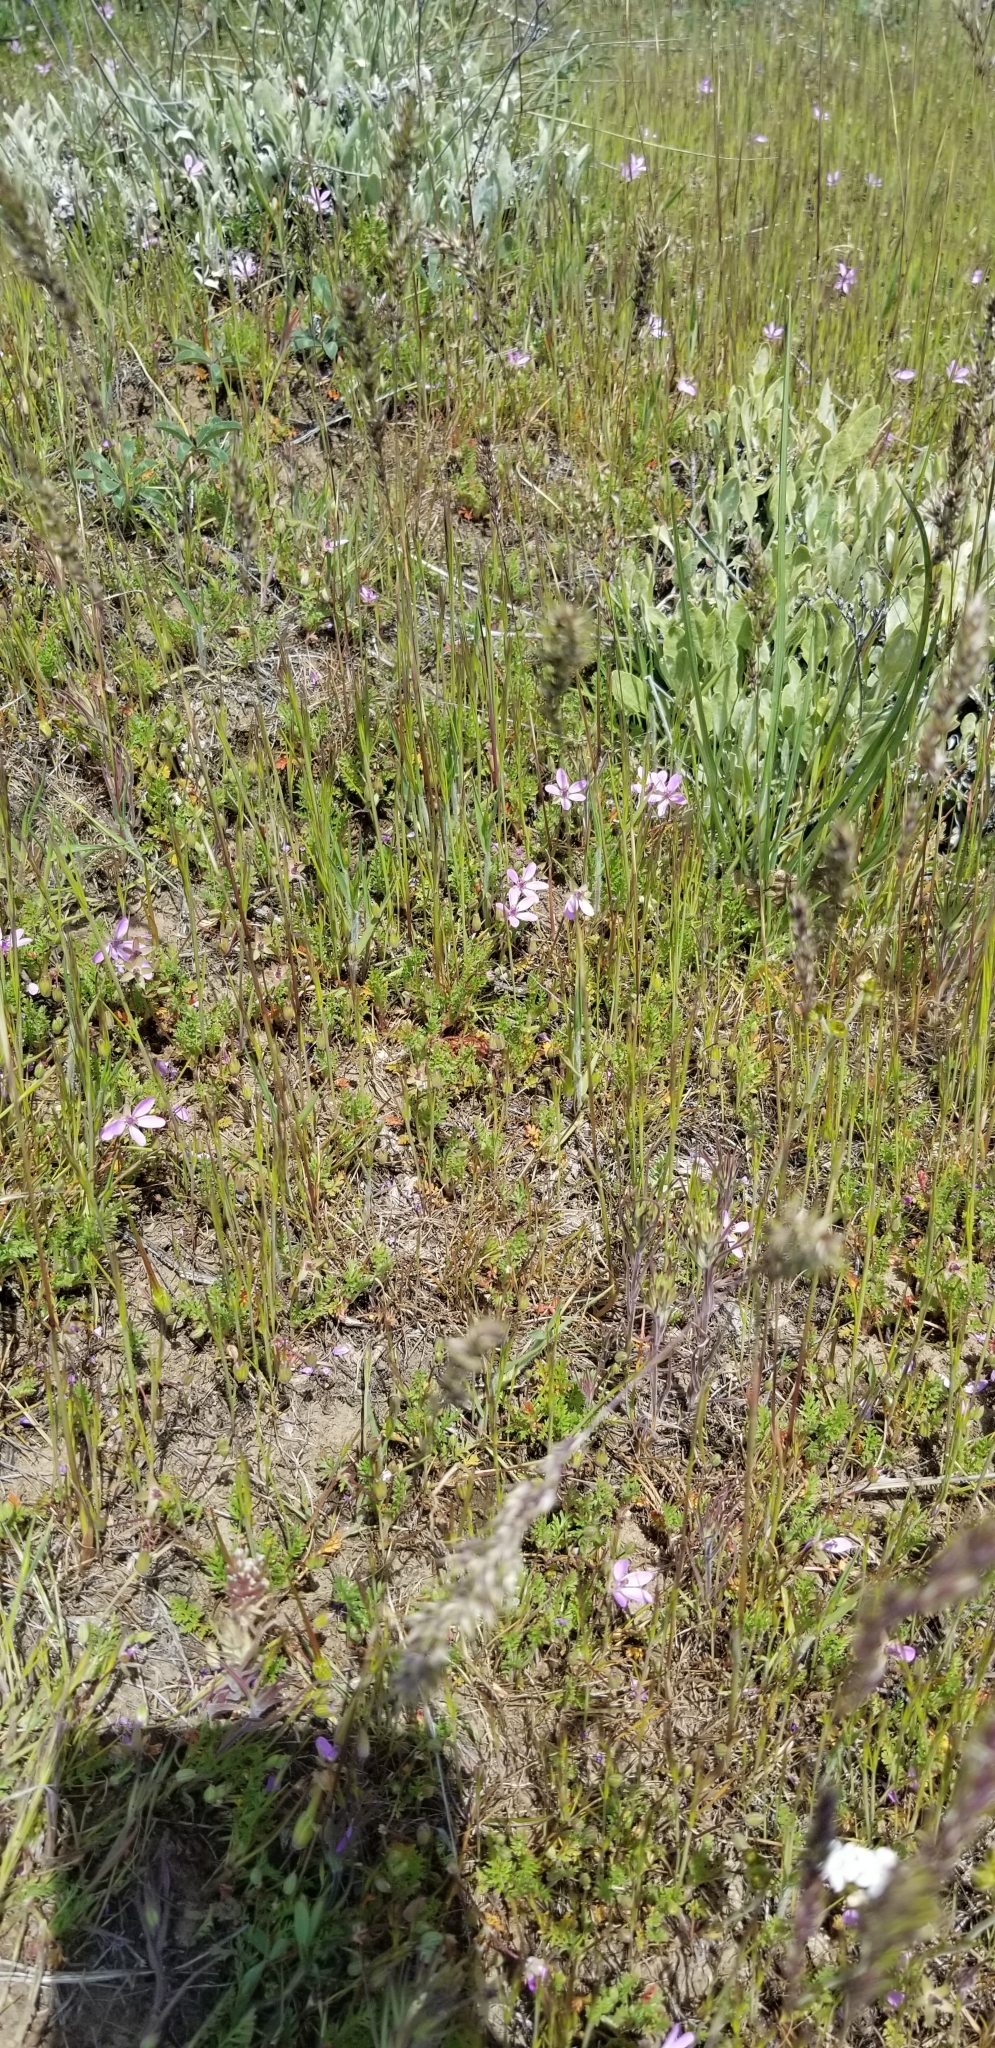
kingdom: Plantae
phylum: Tracheophyta
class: Magnoliopsida
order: Geraniales
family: Geraniaceae
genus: Erodium
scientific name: Erodium cicutarium
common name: Common stork's-bill
